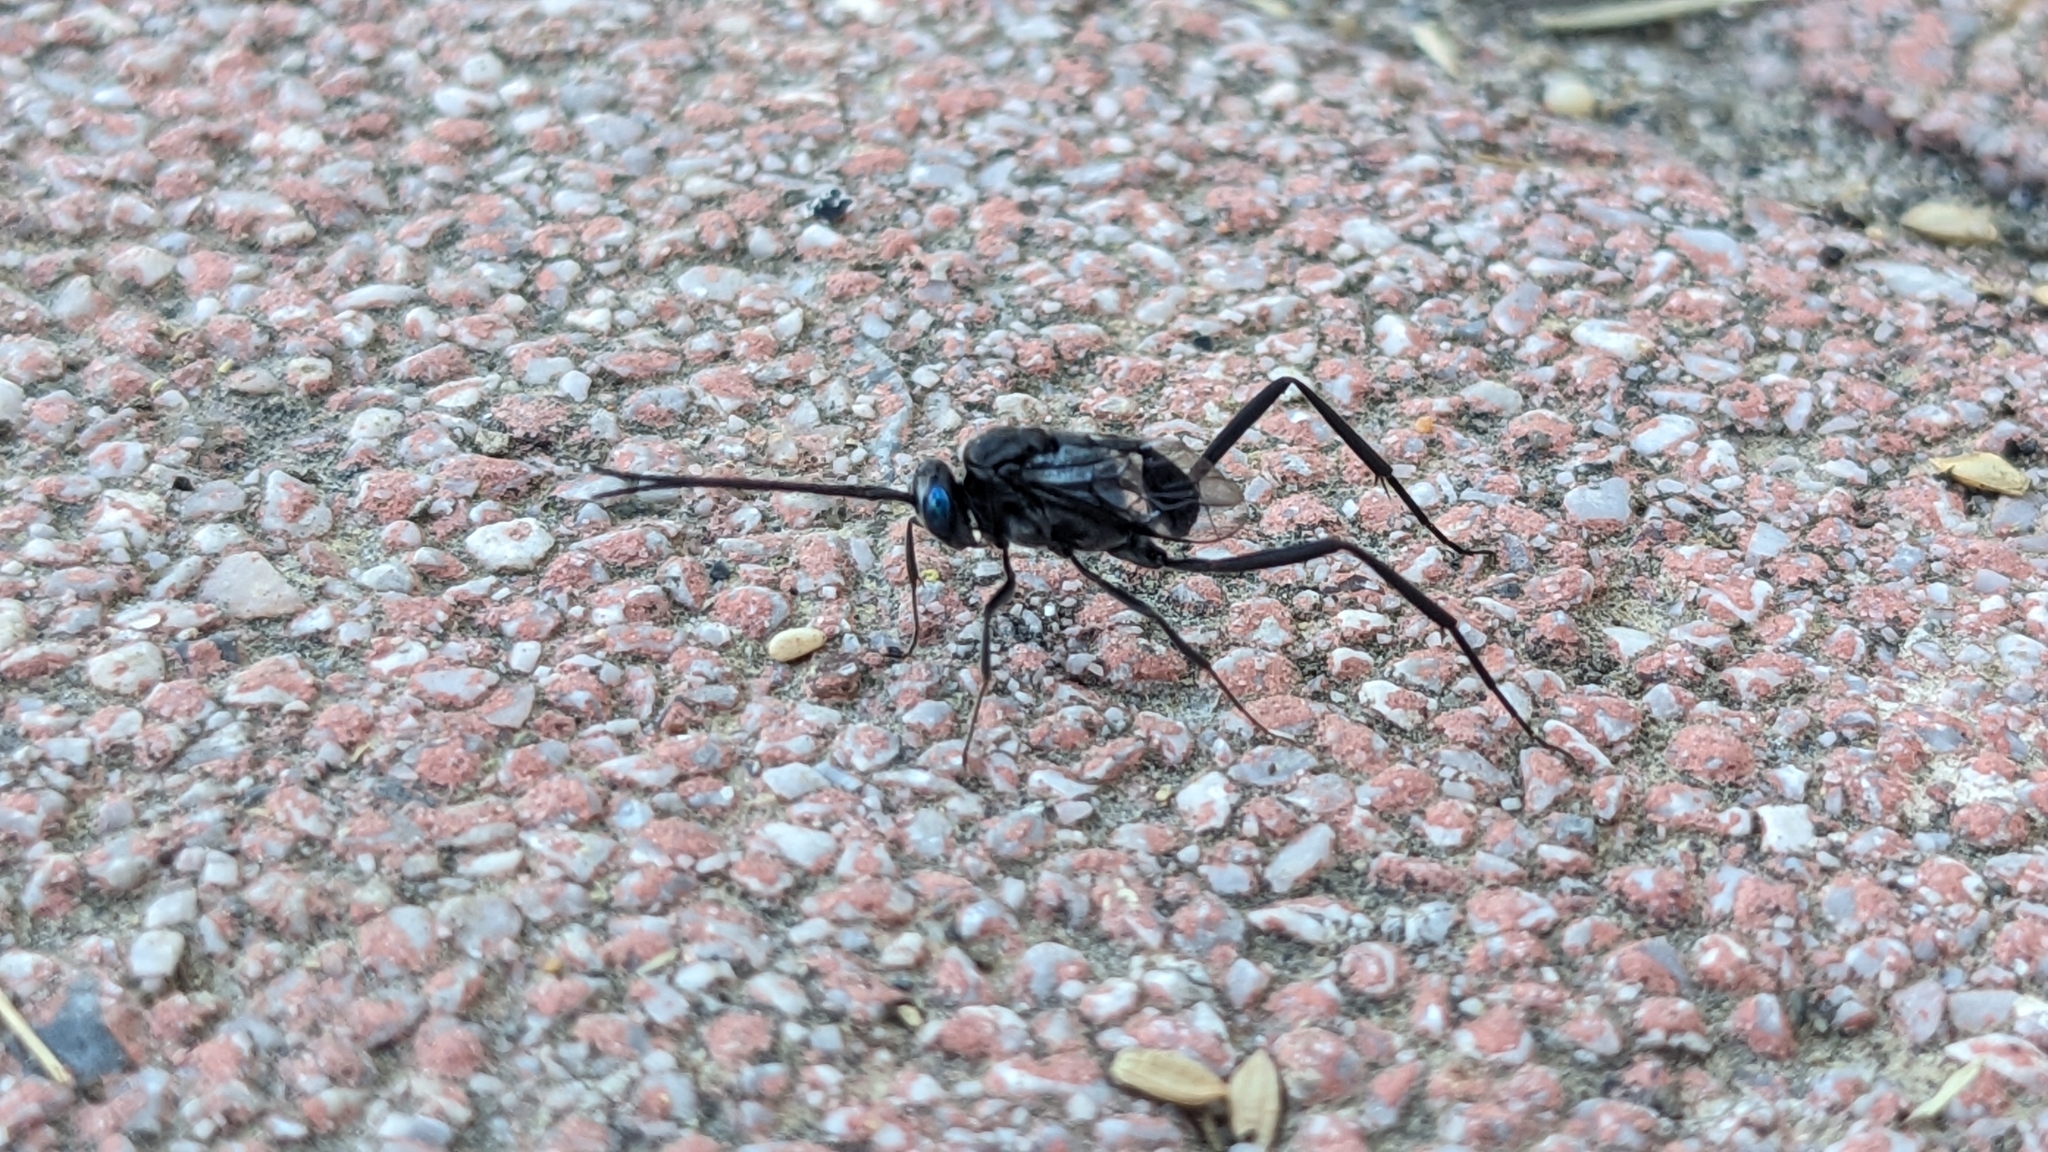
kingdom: Animalia
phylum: Arthropoda
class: Insecta
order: Hymenoptera
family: Evaniidae
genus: Evania
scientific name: Evania appendigaster
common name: Ensign wasp
